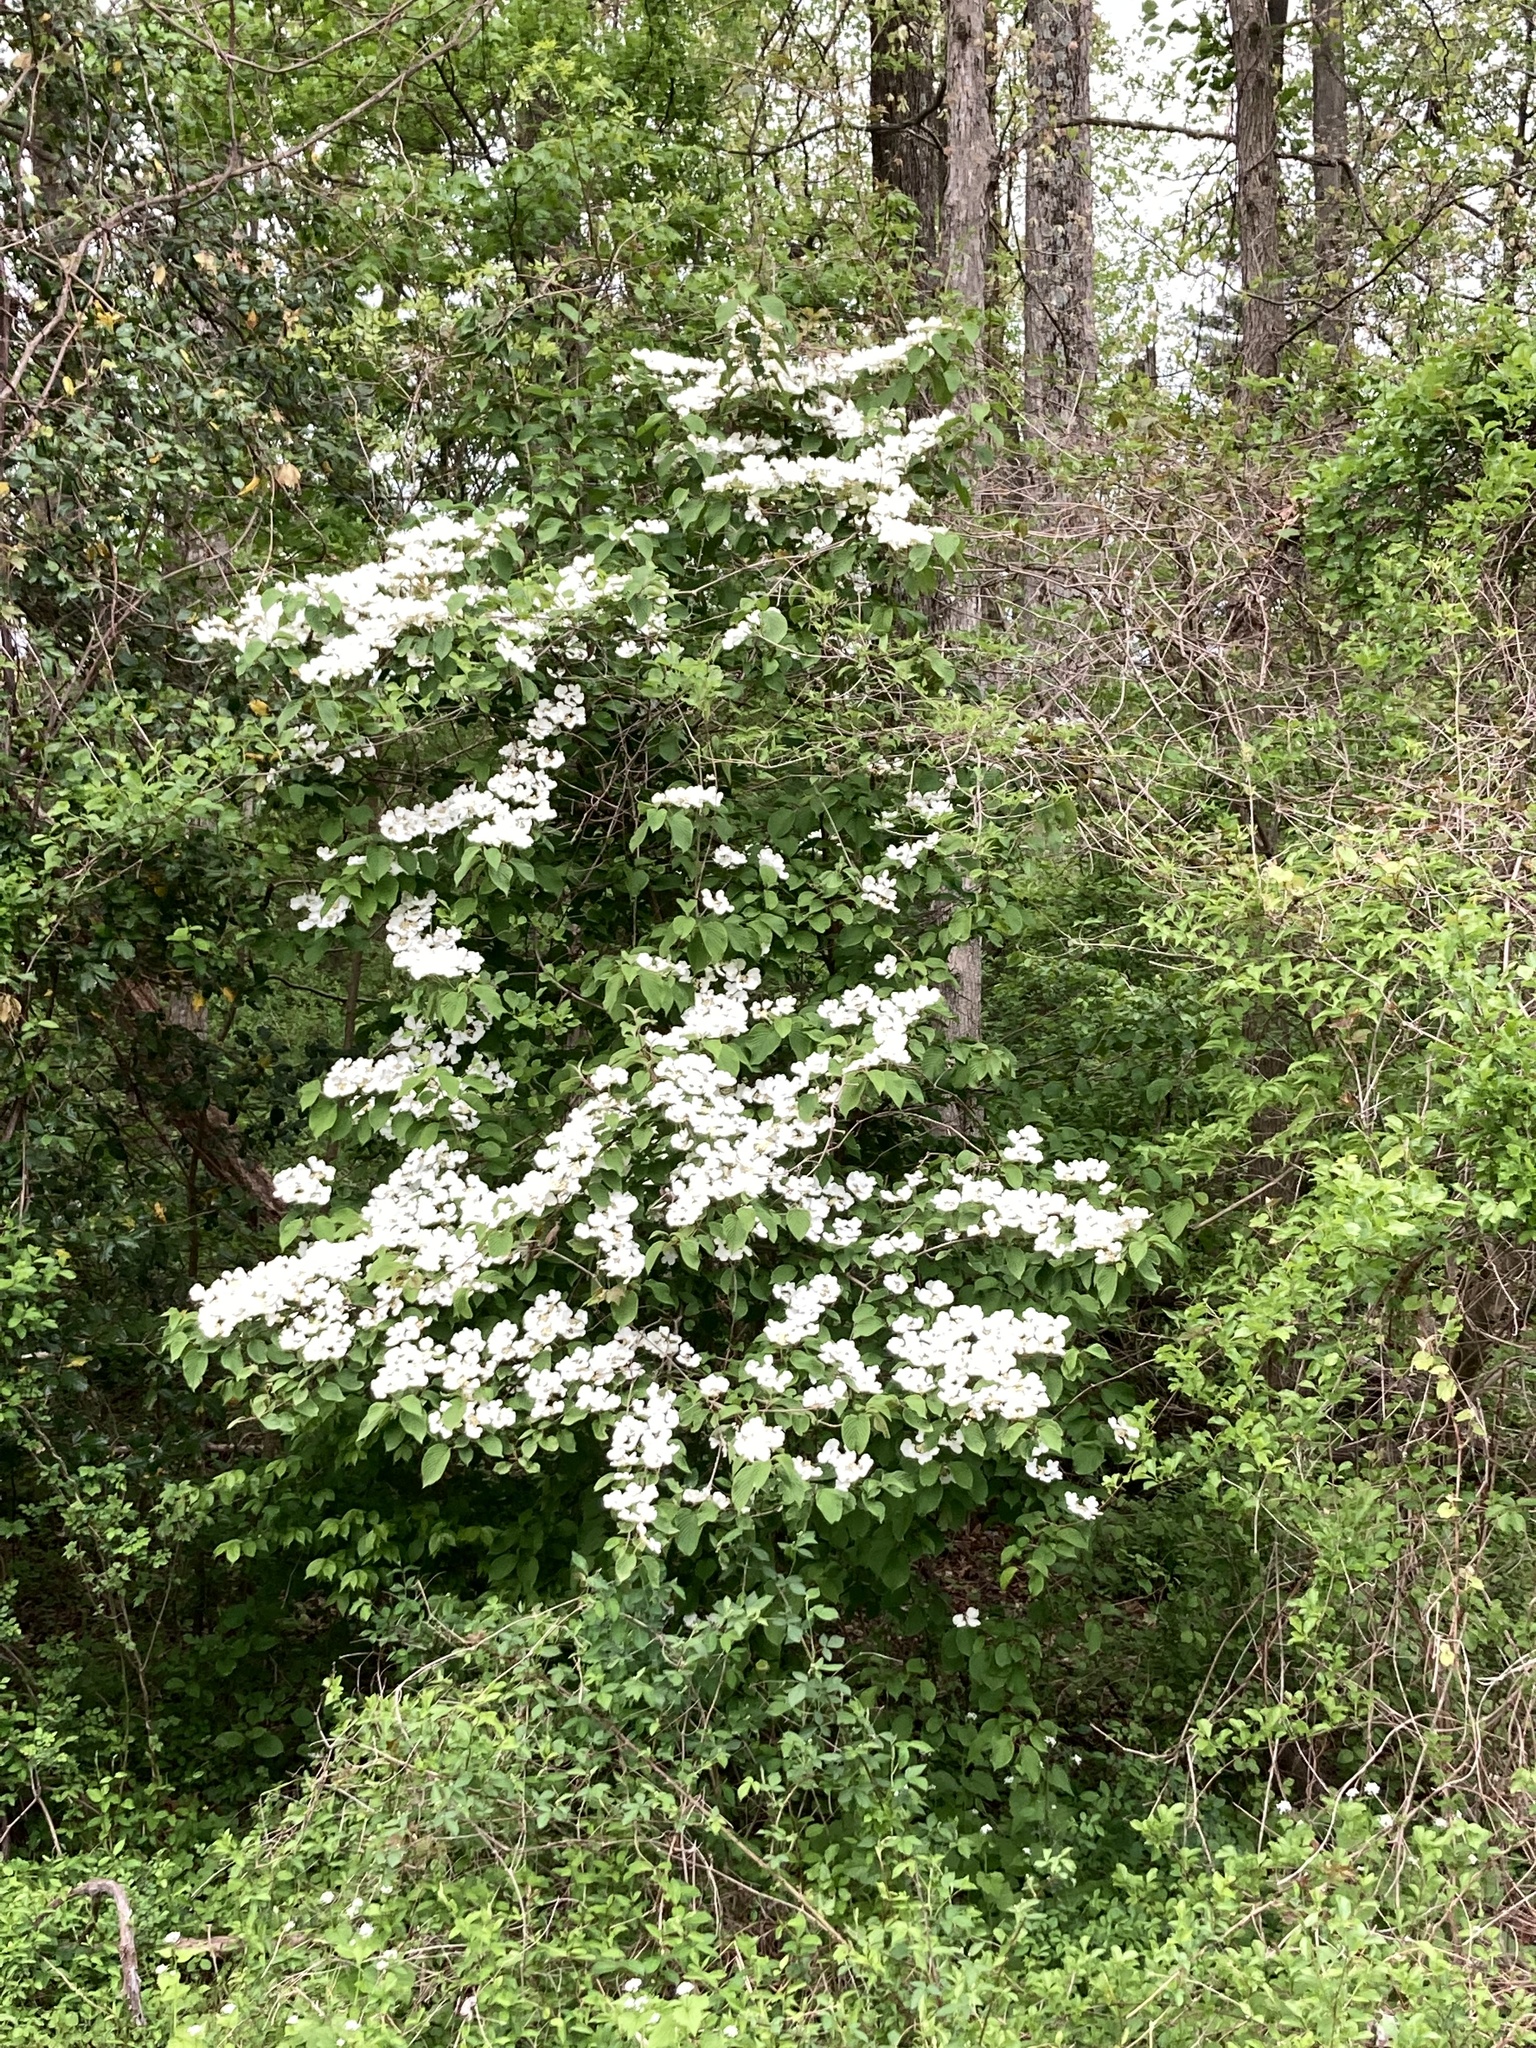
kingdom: Plantae
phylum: Tracheophyta
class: Magnoliopsida
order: Dipsacales
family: Viburnaceae
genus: Viburnum
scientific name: Viburnum plicatum
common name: Japanese snowball
